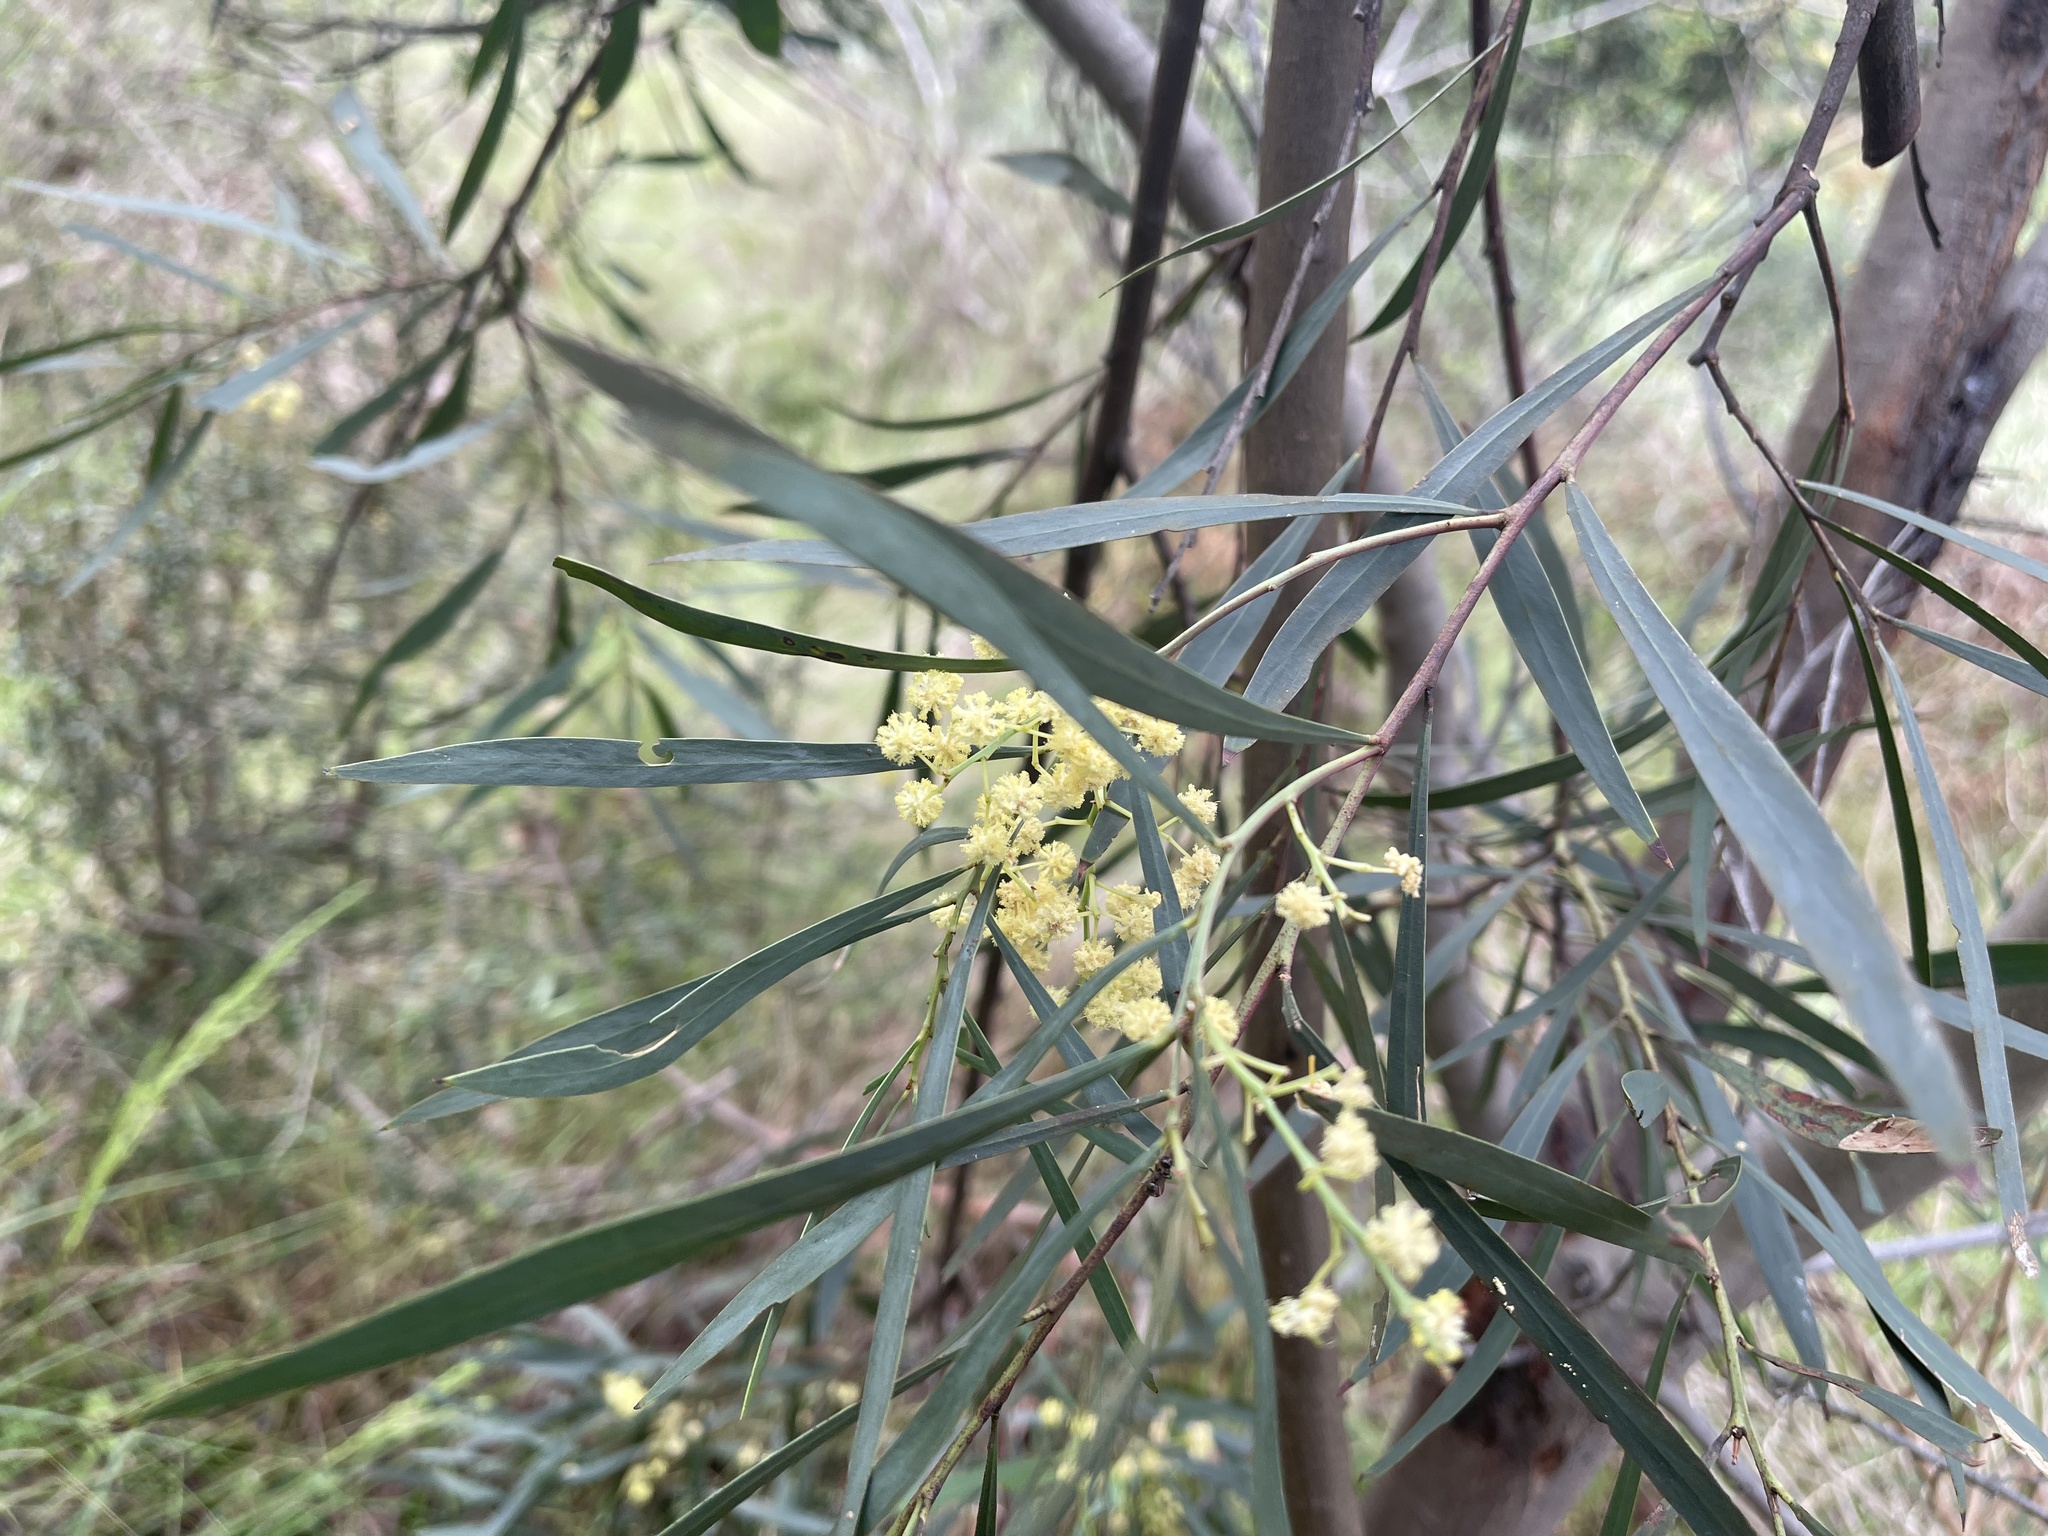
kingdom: Plantae
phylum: Tracheophyta
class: Magnoliopsida
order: Fabales
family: Fabaceae
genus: Acacia
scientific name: Acacia provincialis
